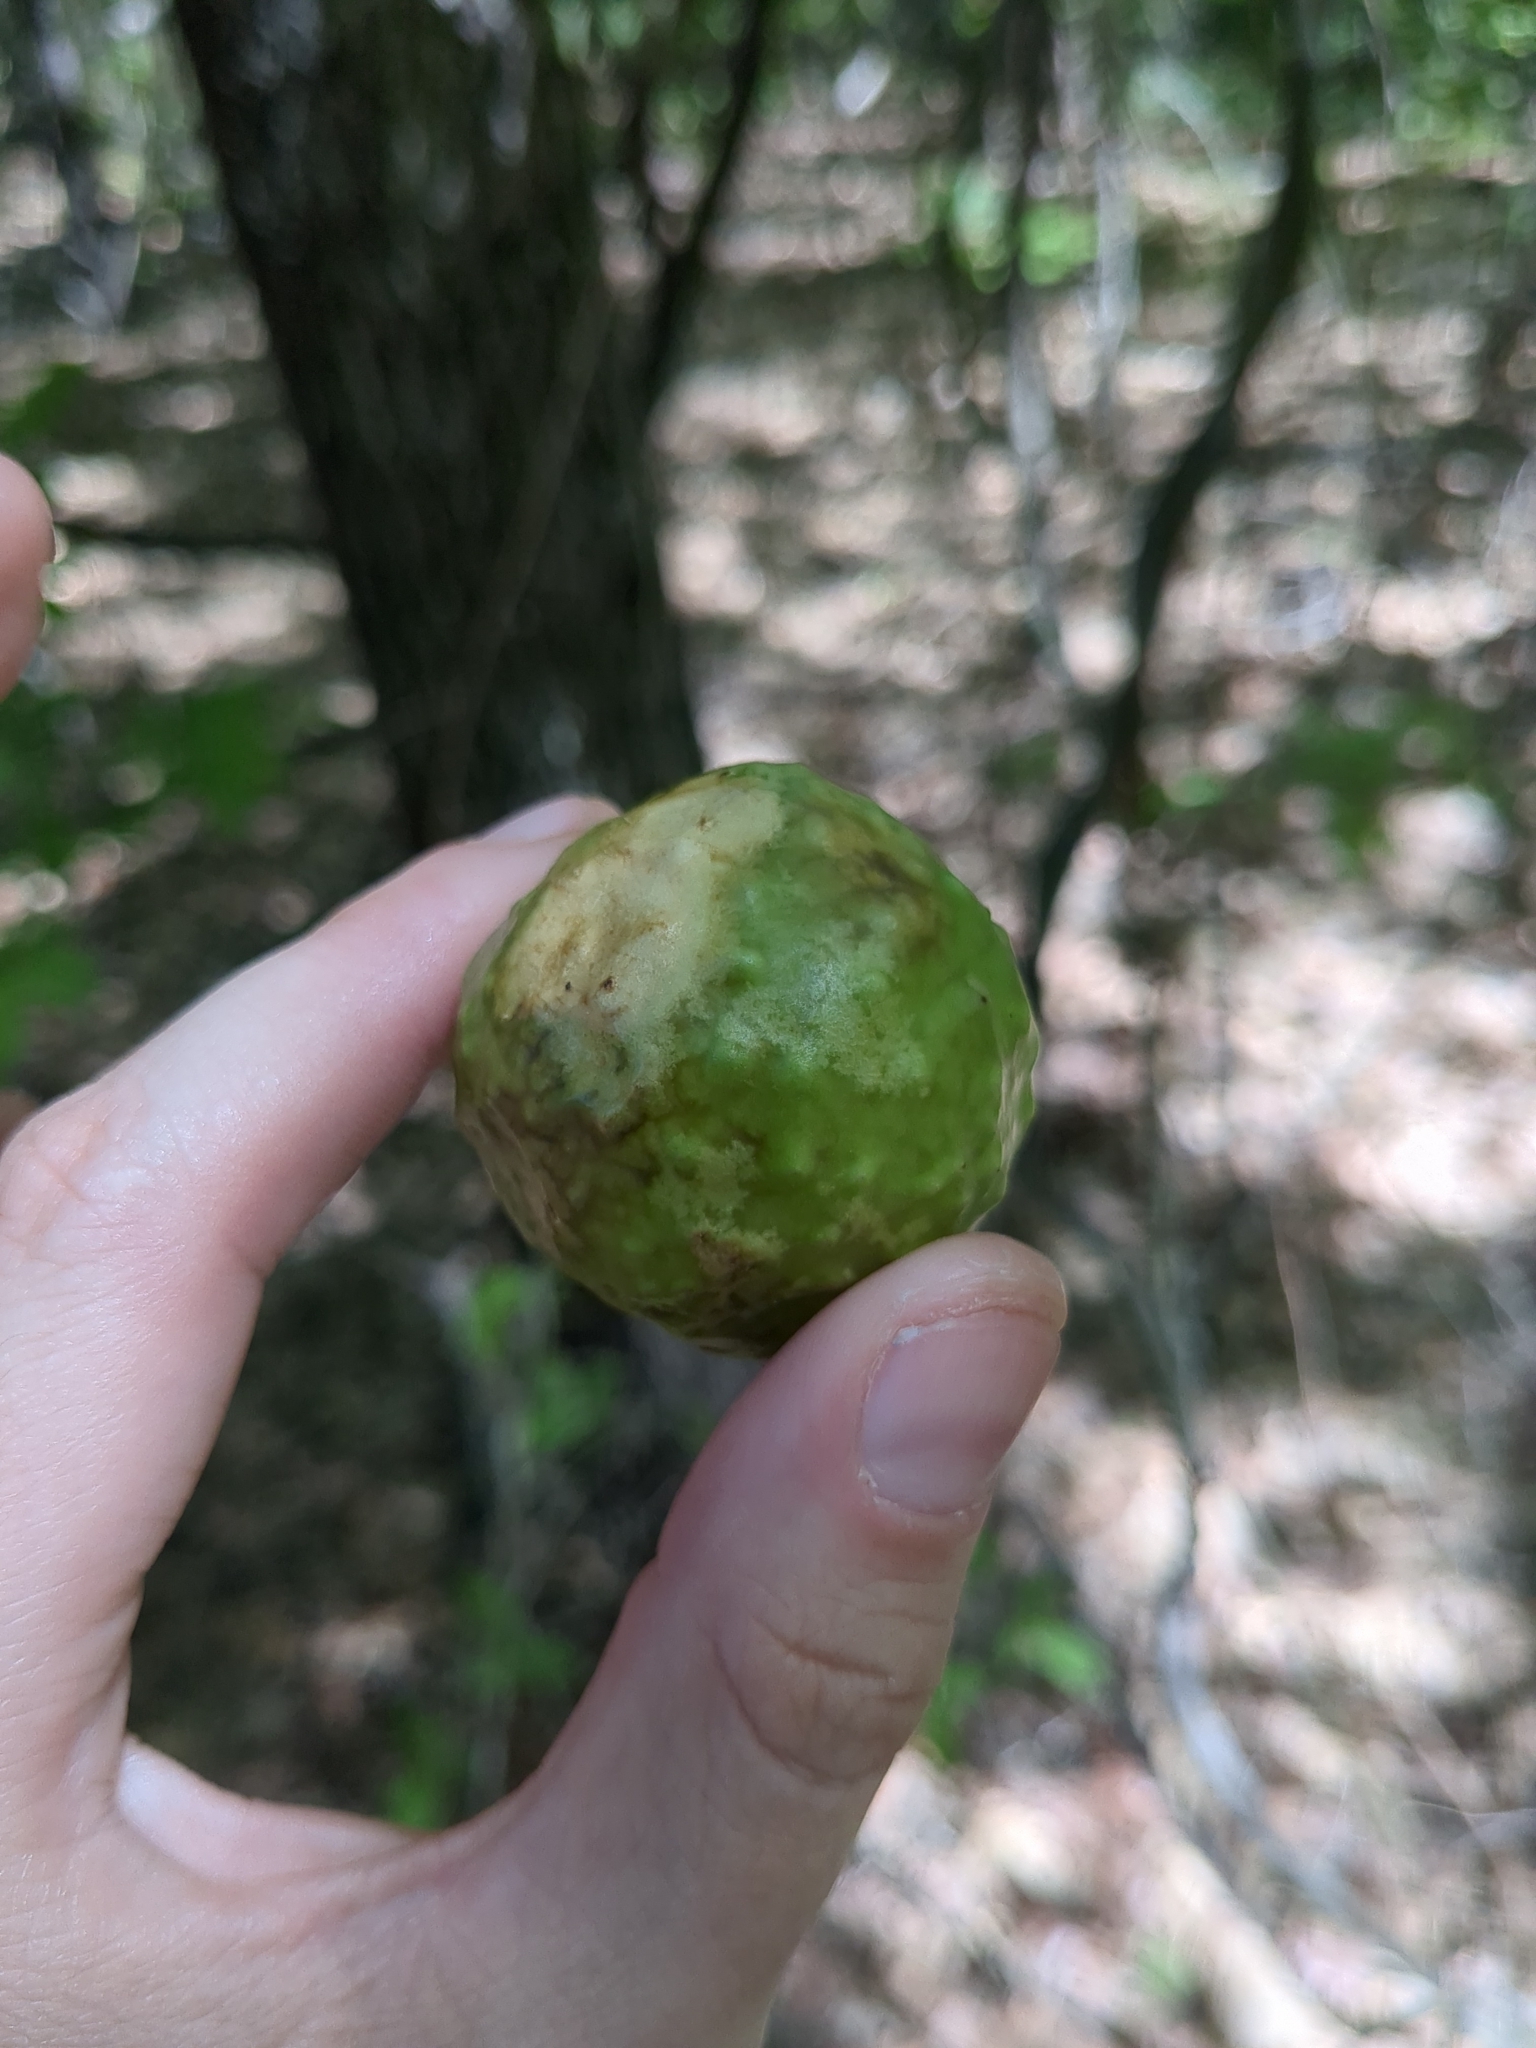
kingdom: Animalia
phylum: Arthropoda
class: Insecta
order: Hymenoptera
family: Cynipidae
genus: Amphibolips
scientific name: Amphibolips
